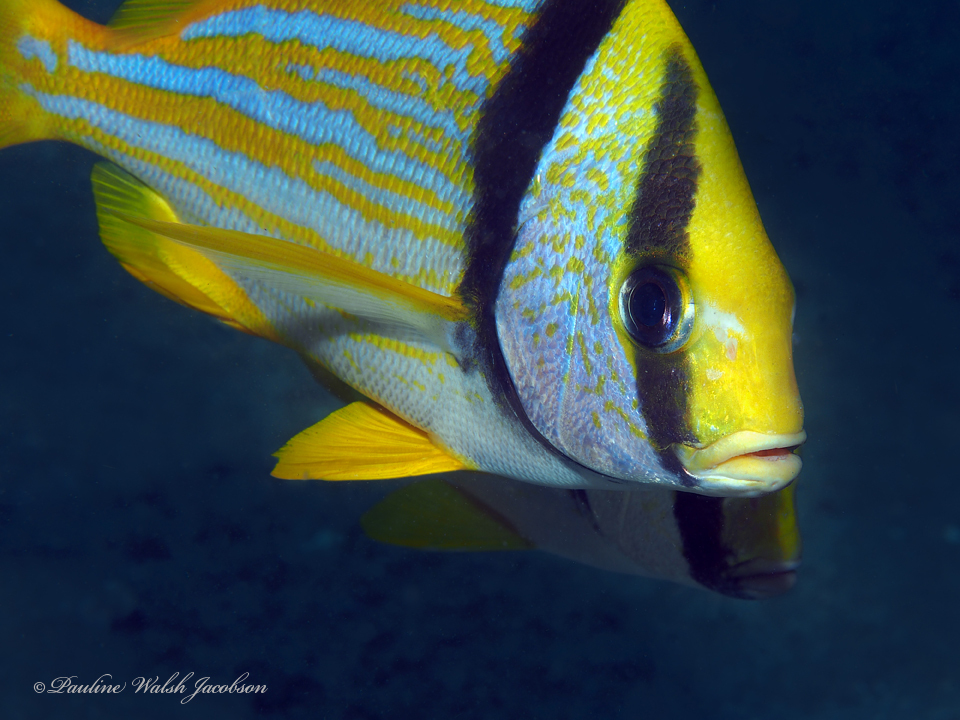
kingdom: Animalia
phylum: Chordata
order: Perciformes
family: Haemulidae
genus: Anisotremus
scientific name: Anisotremus virginicus
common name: Porkfish
